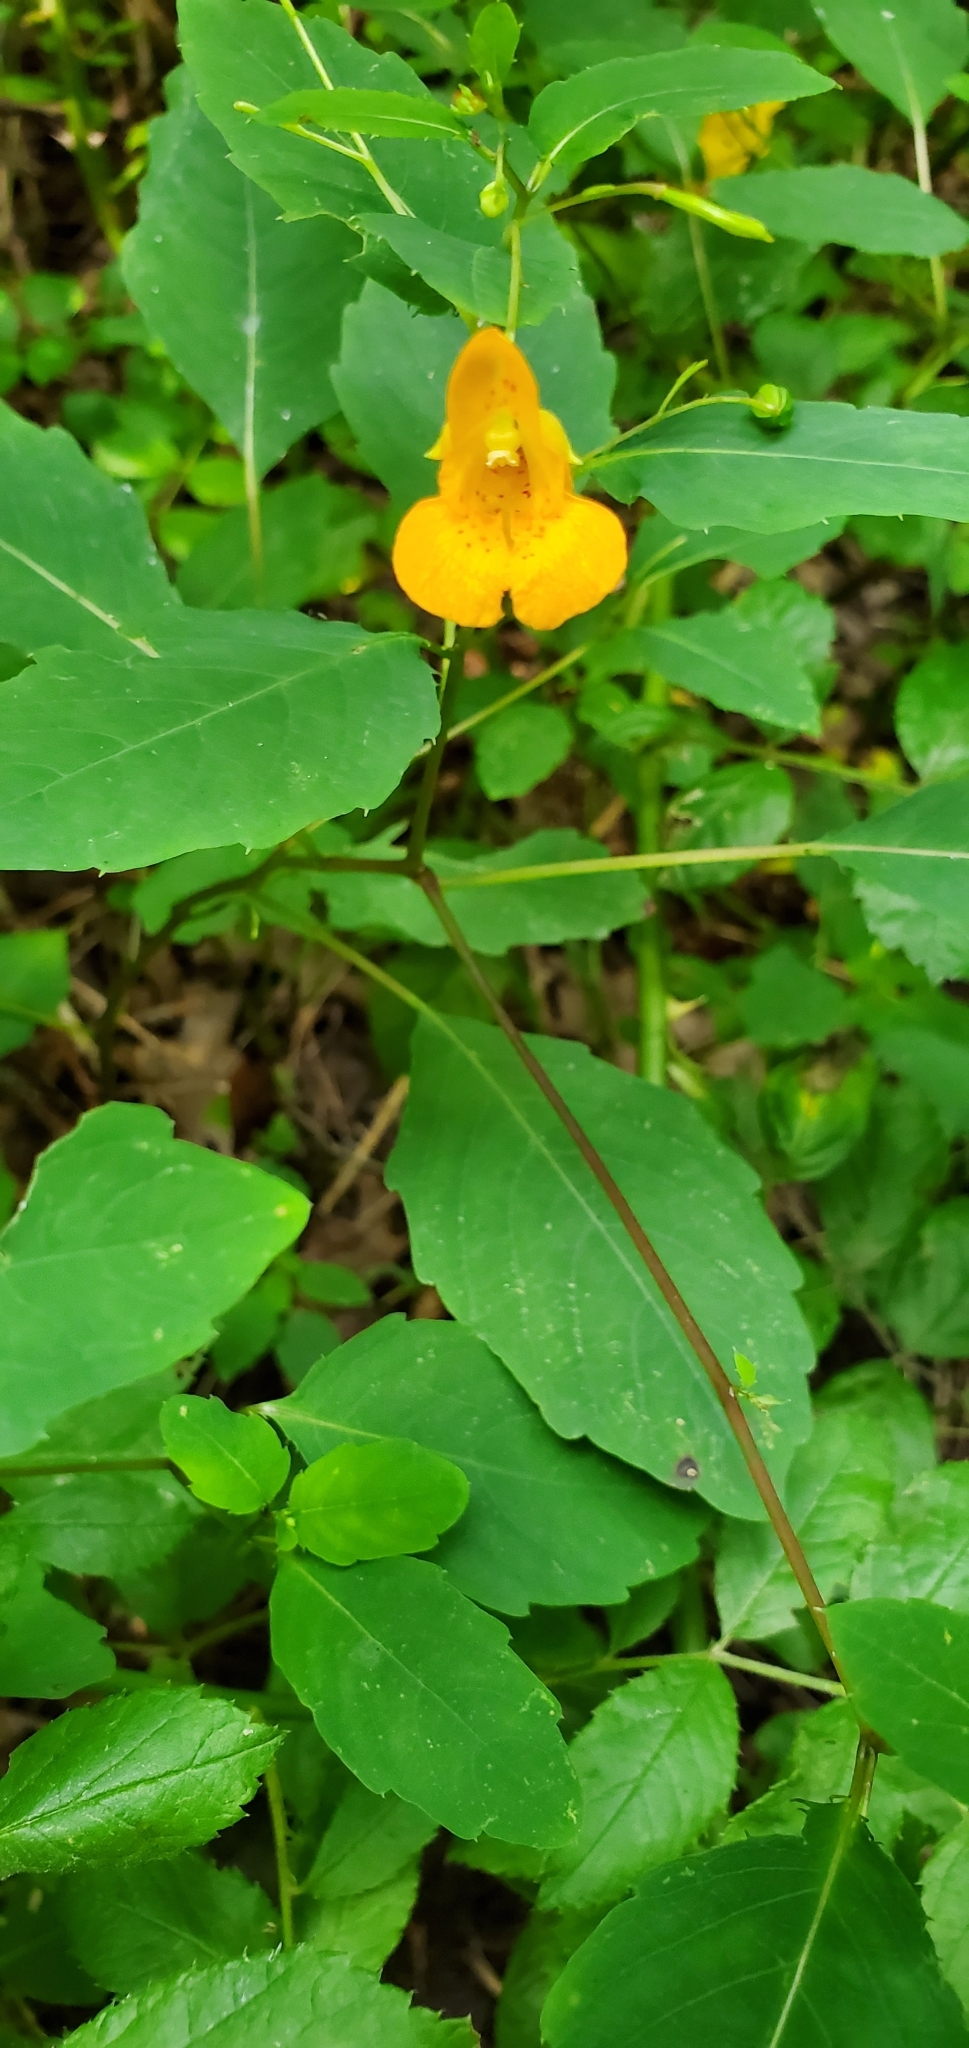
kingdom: Plantae
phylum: Tracheophyta
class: Magnoliopsida
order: Ericales
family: Balsaminaceae
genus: Impatiens
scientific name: Impatiens capensis
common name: Orange balsam
